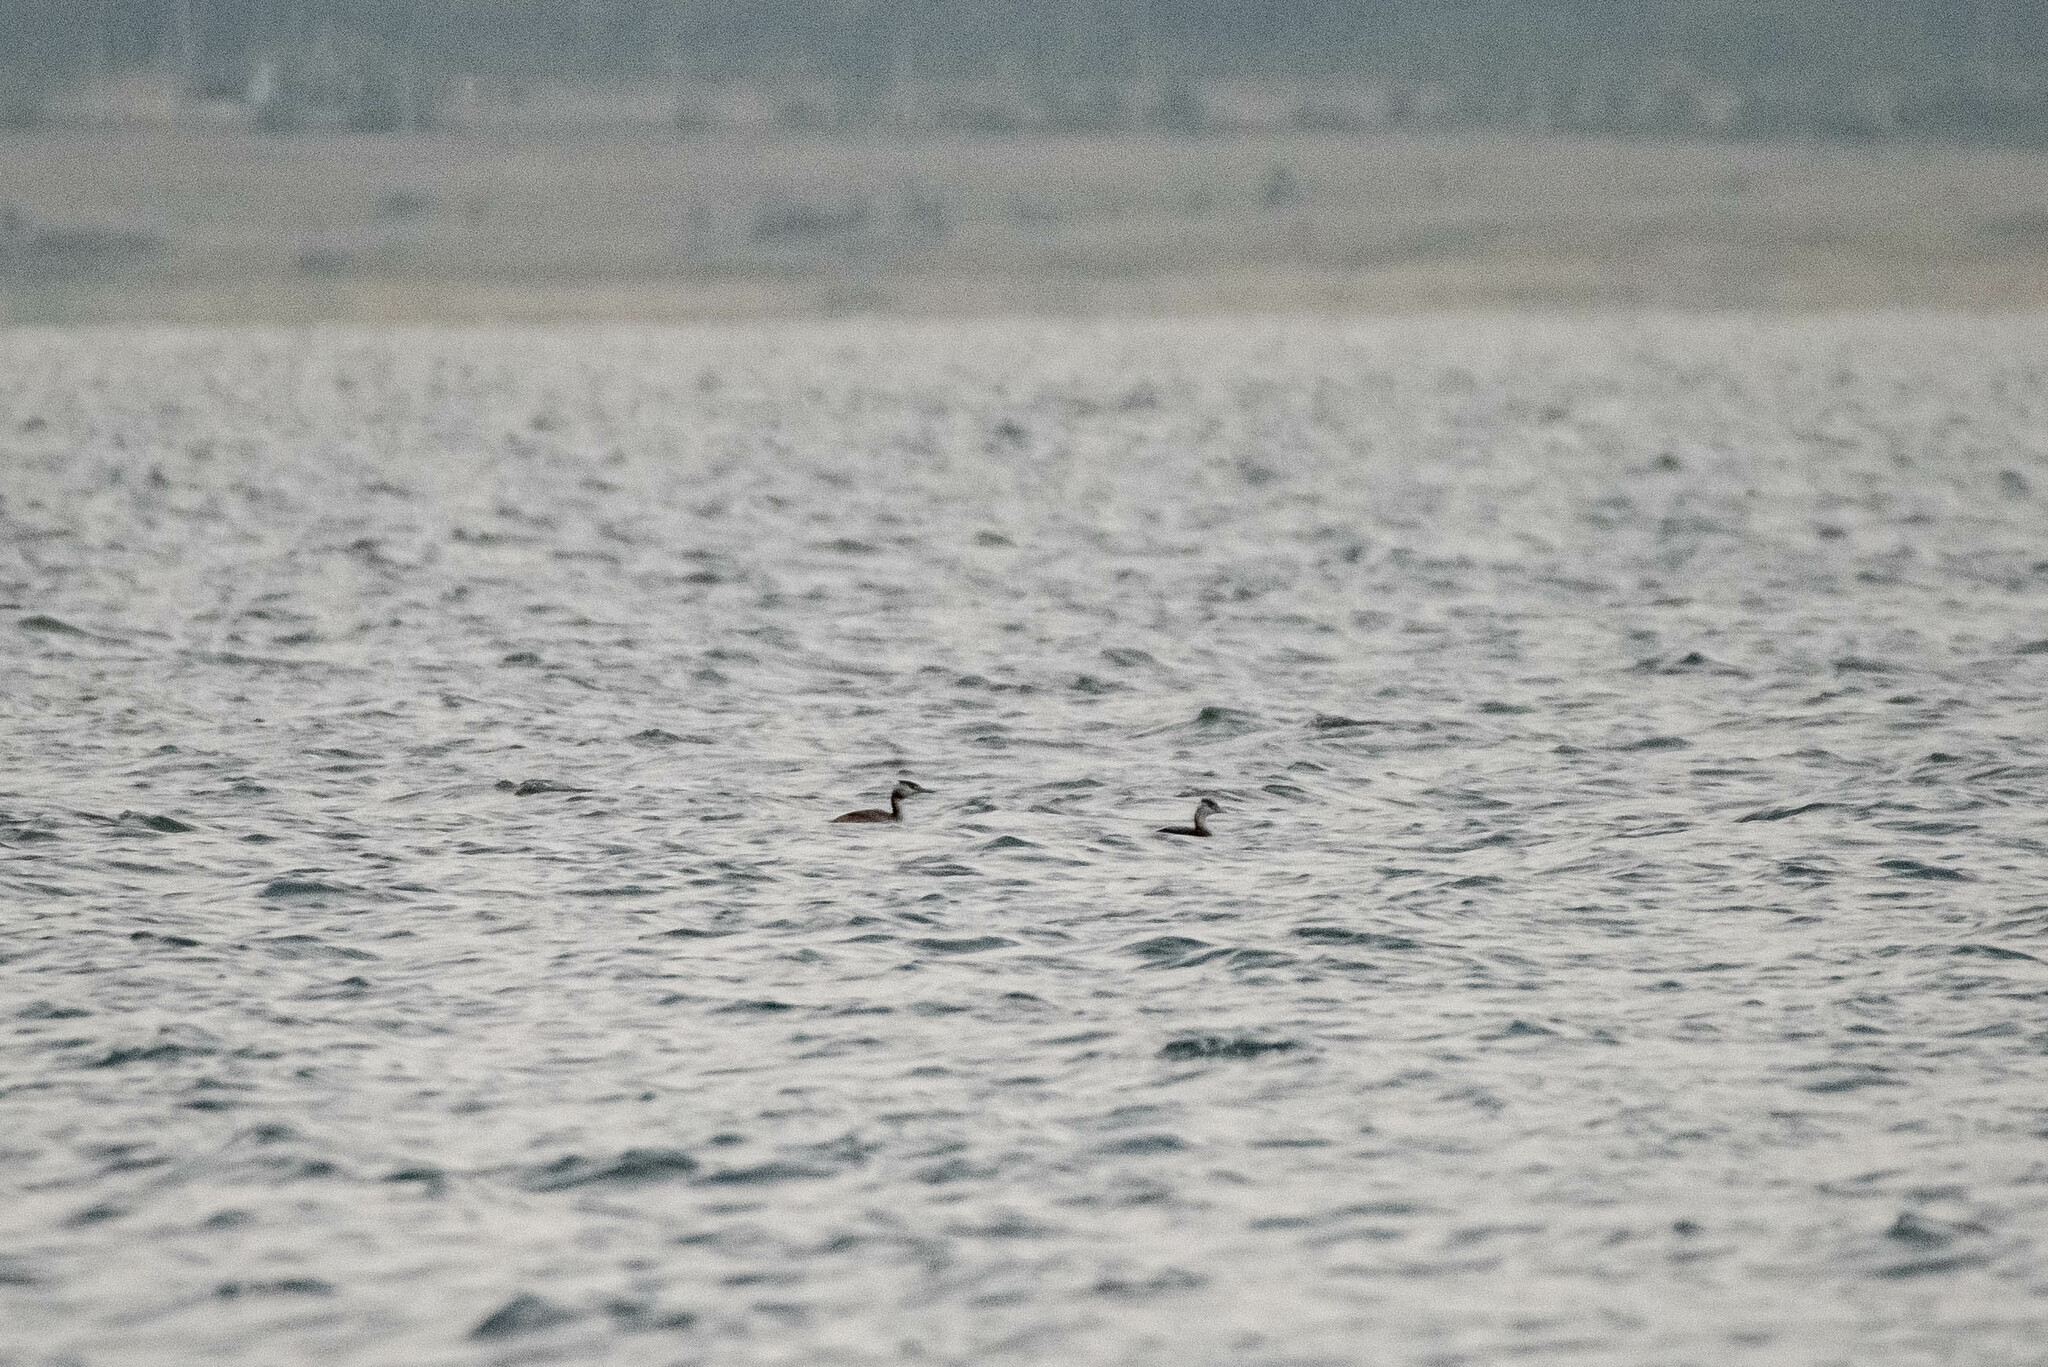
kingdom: Animalia
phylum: Chordata
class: Aves
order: Podicipediformes
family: Podicipedidae
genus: Podiceps
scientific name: Podiceps cristatus
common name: Great crested grebe
